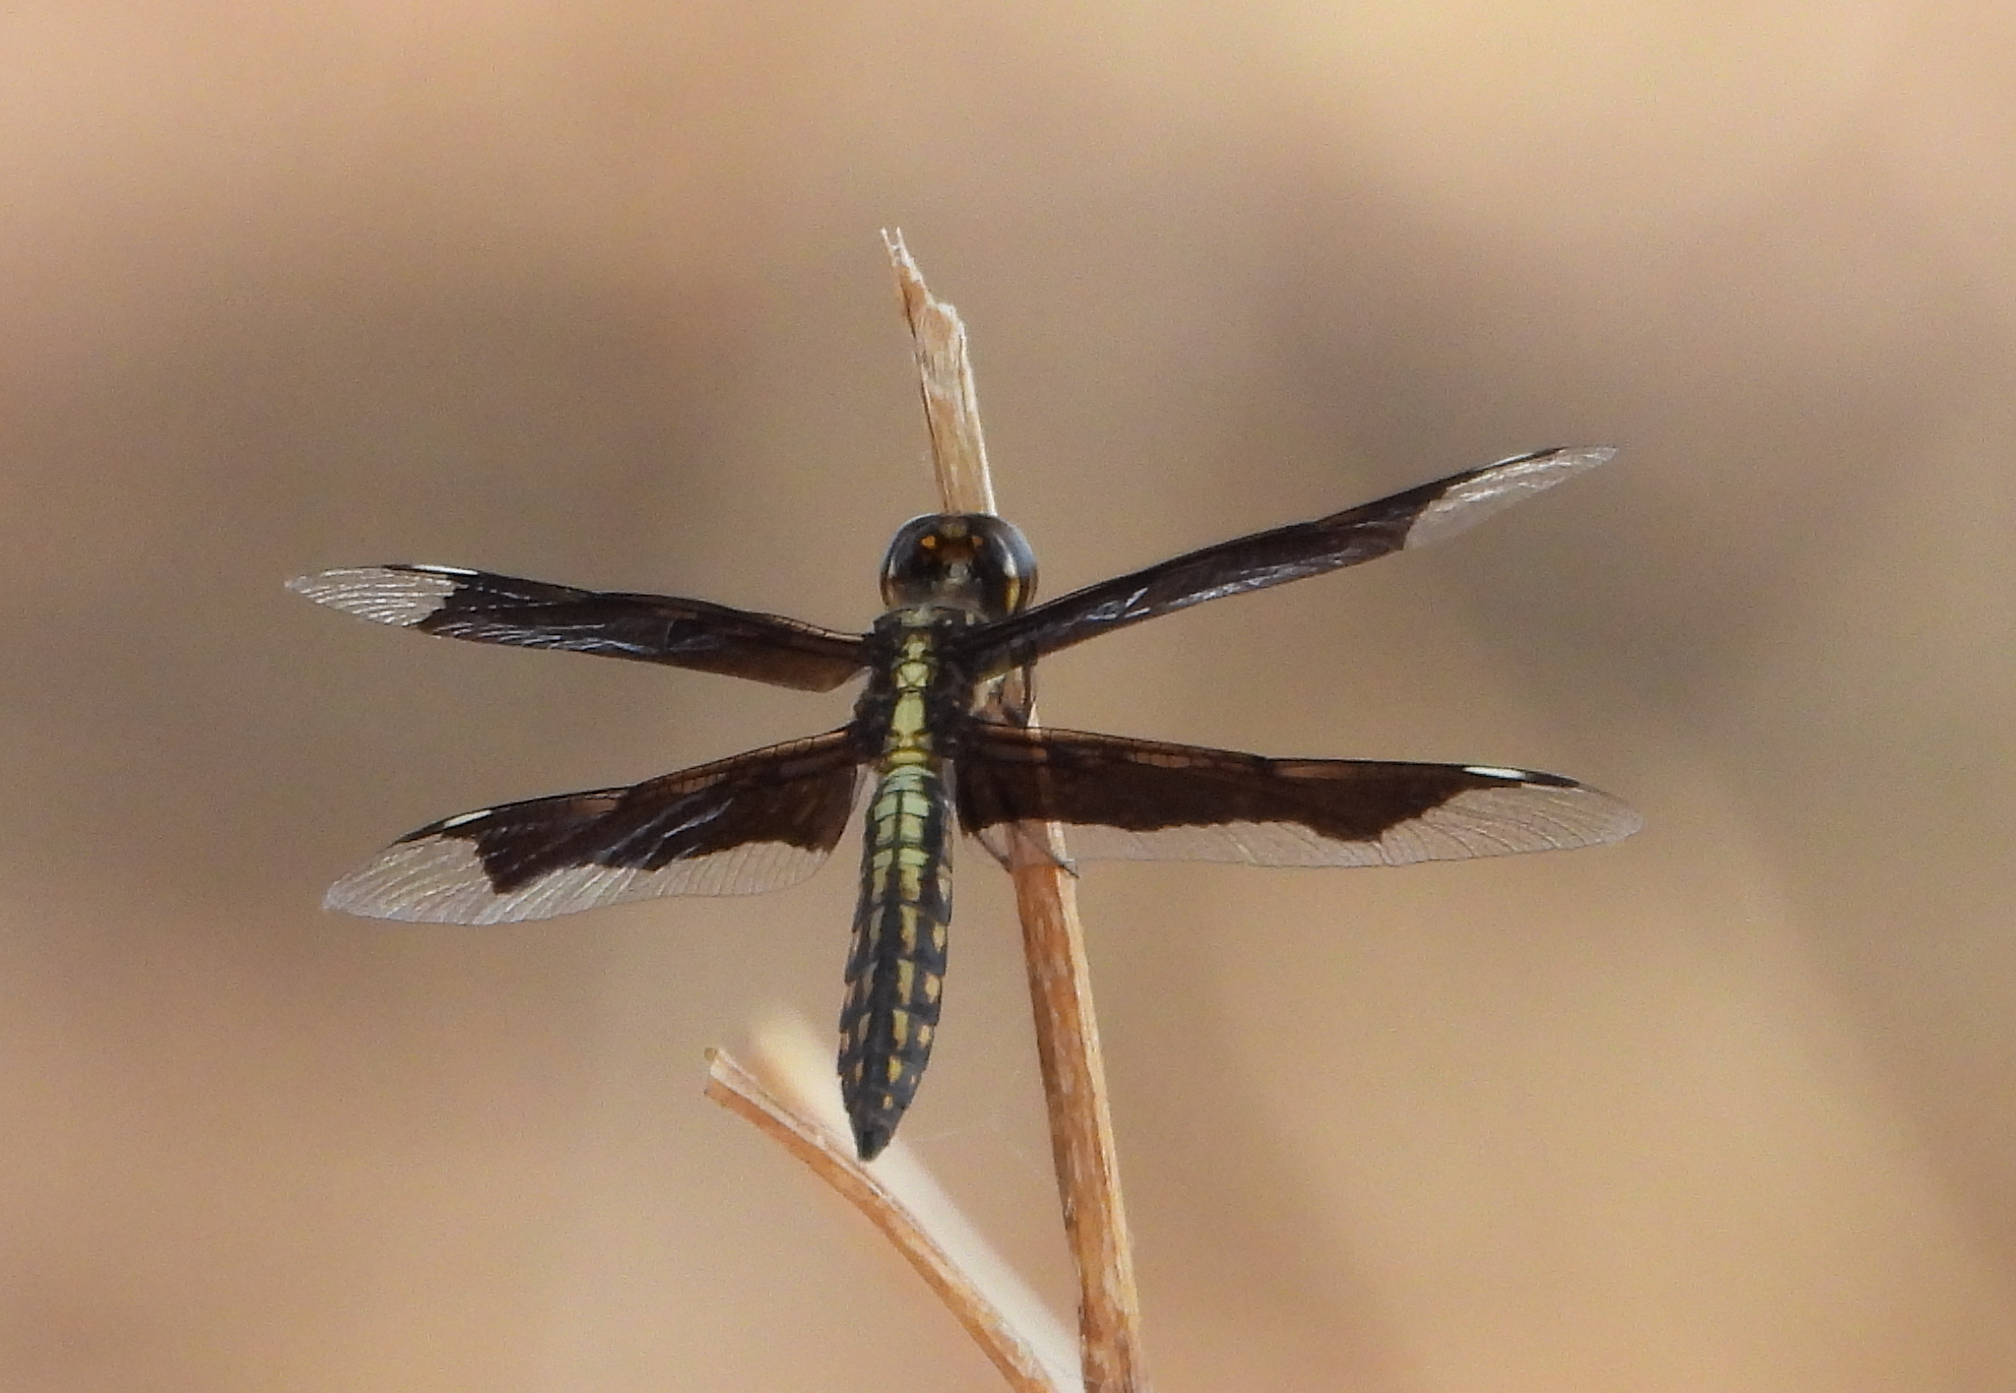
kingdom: Animalia
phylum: Arthropoda
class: Insecta
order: Odonata
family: Libellulidae
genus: Palpopleura
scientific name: Palpopleura lucia
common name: Lucia widow
